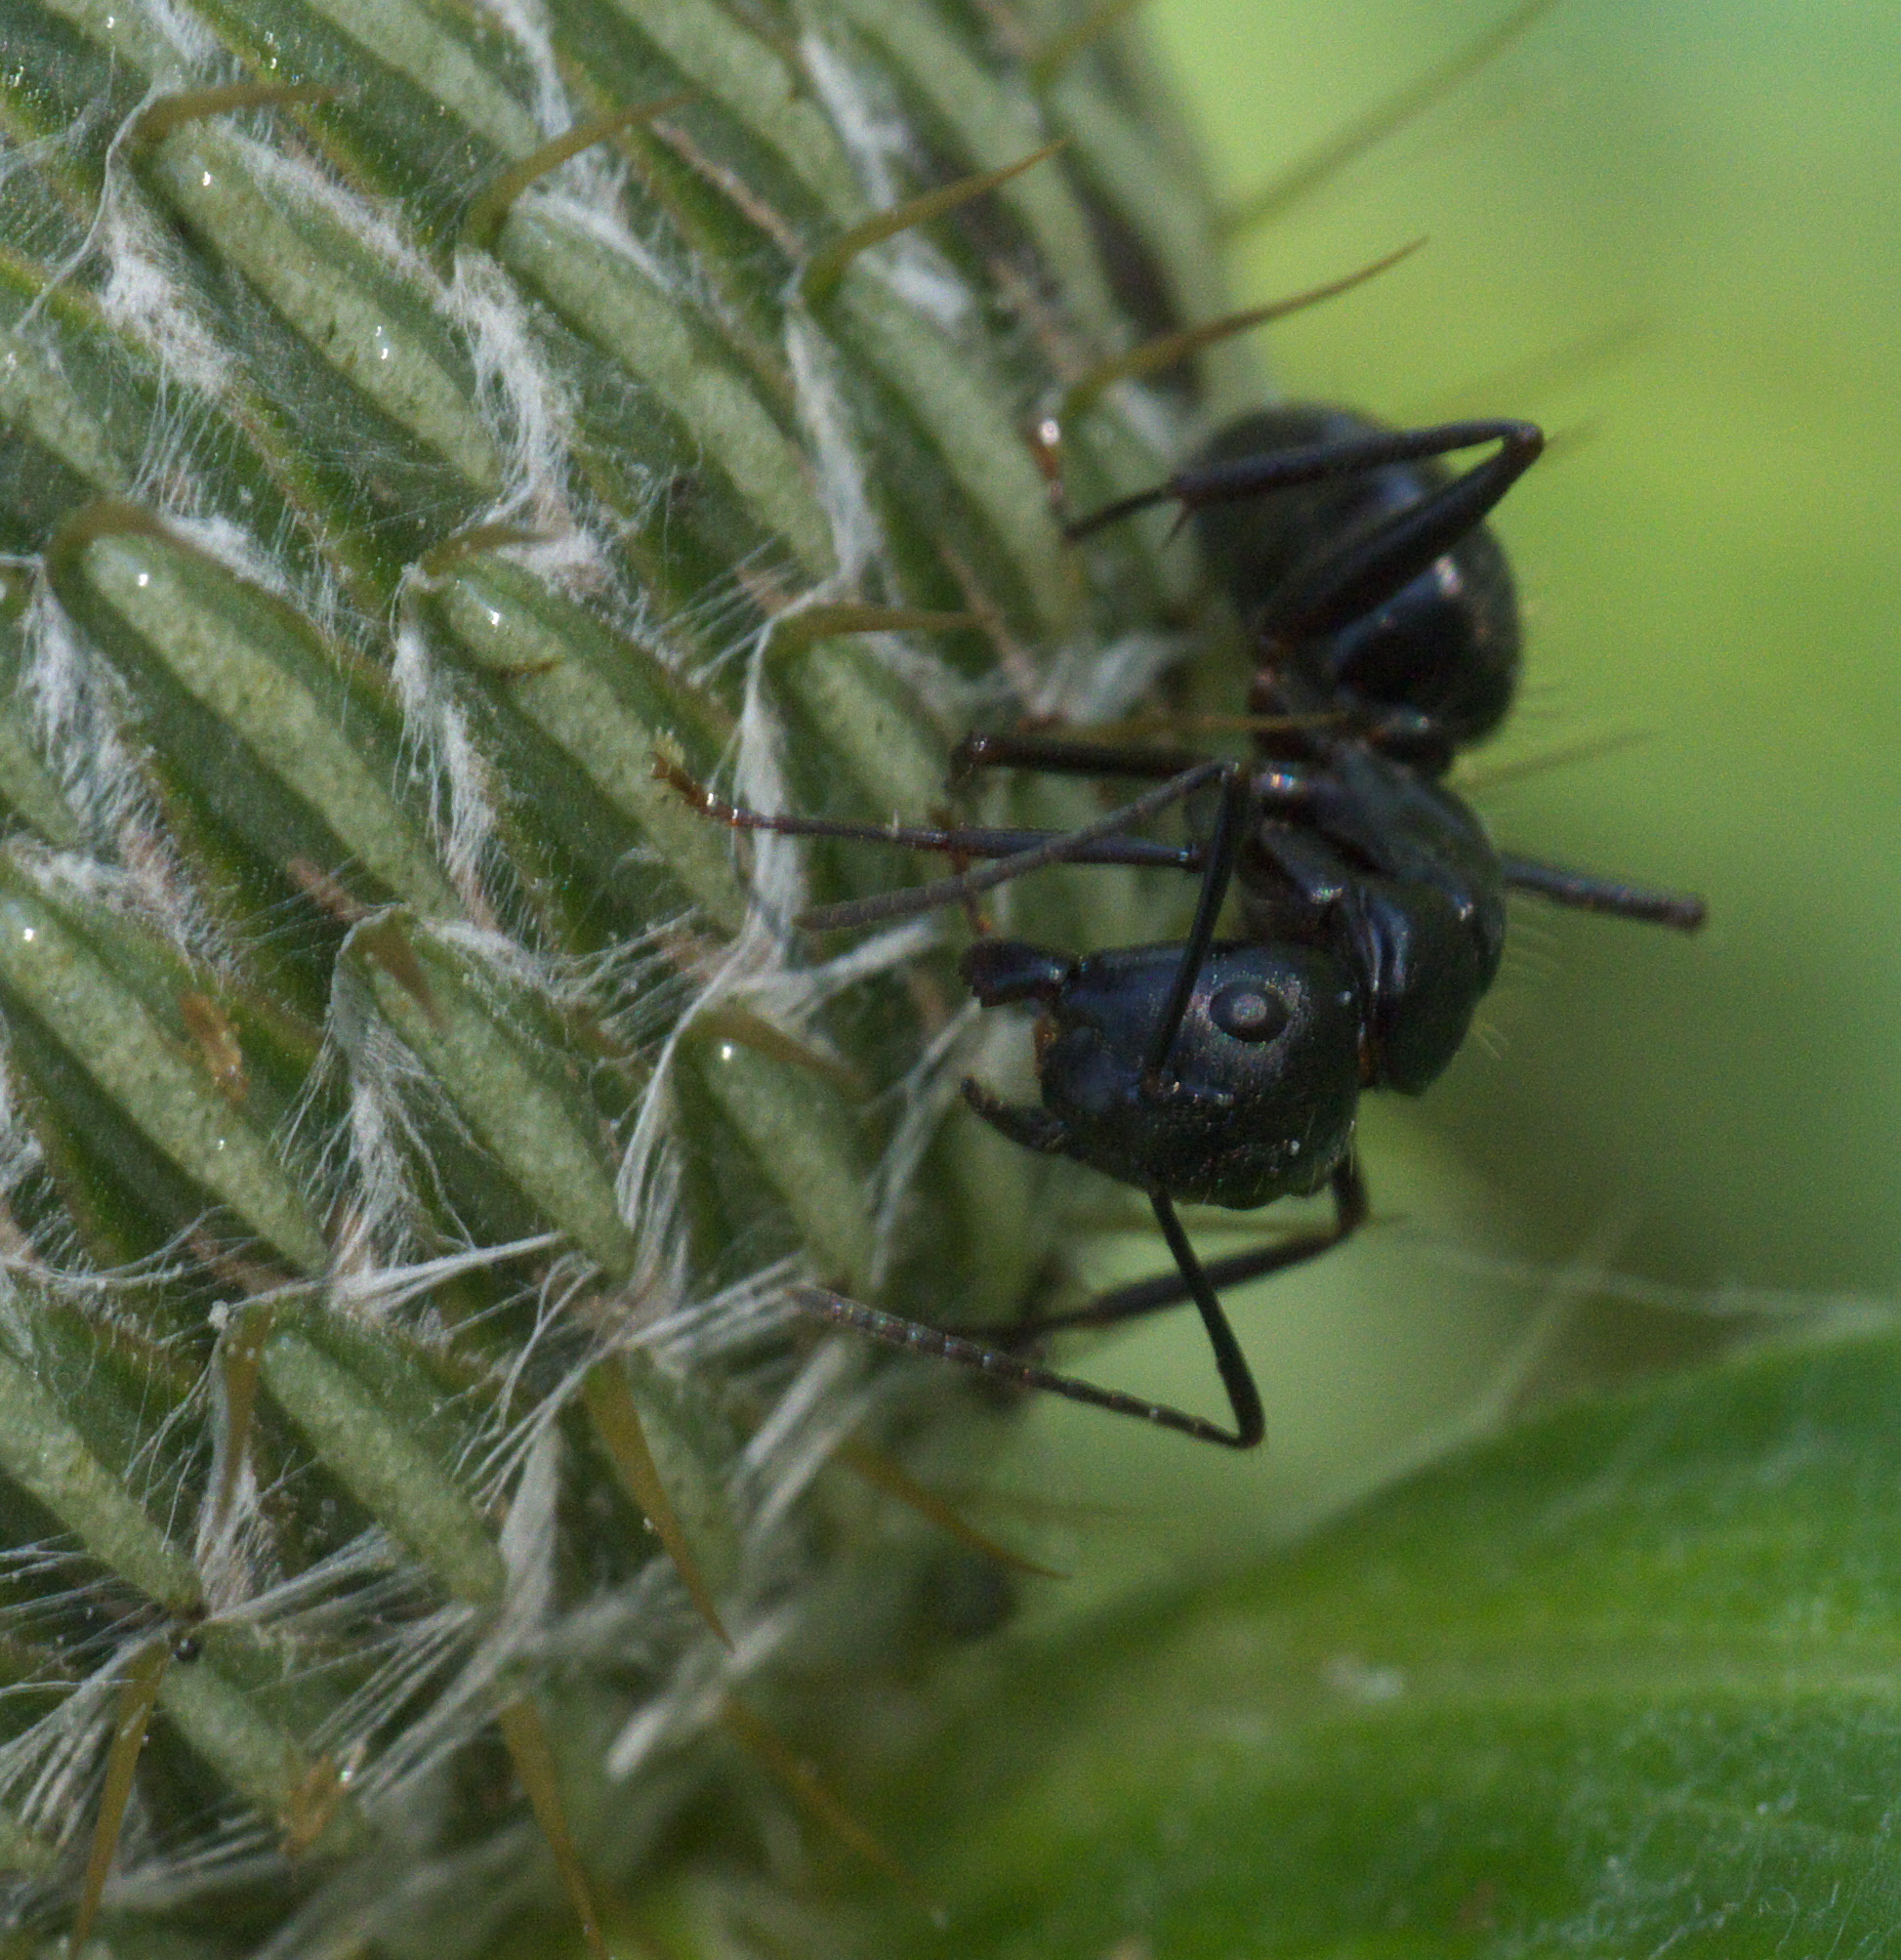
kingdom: Animalia
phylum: Arthropoda
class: Insecta
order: Hymenoptera
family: Formicidae
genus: Camponotus
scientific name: Camponotus pennsylvanicus
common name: Black carpenter ant
